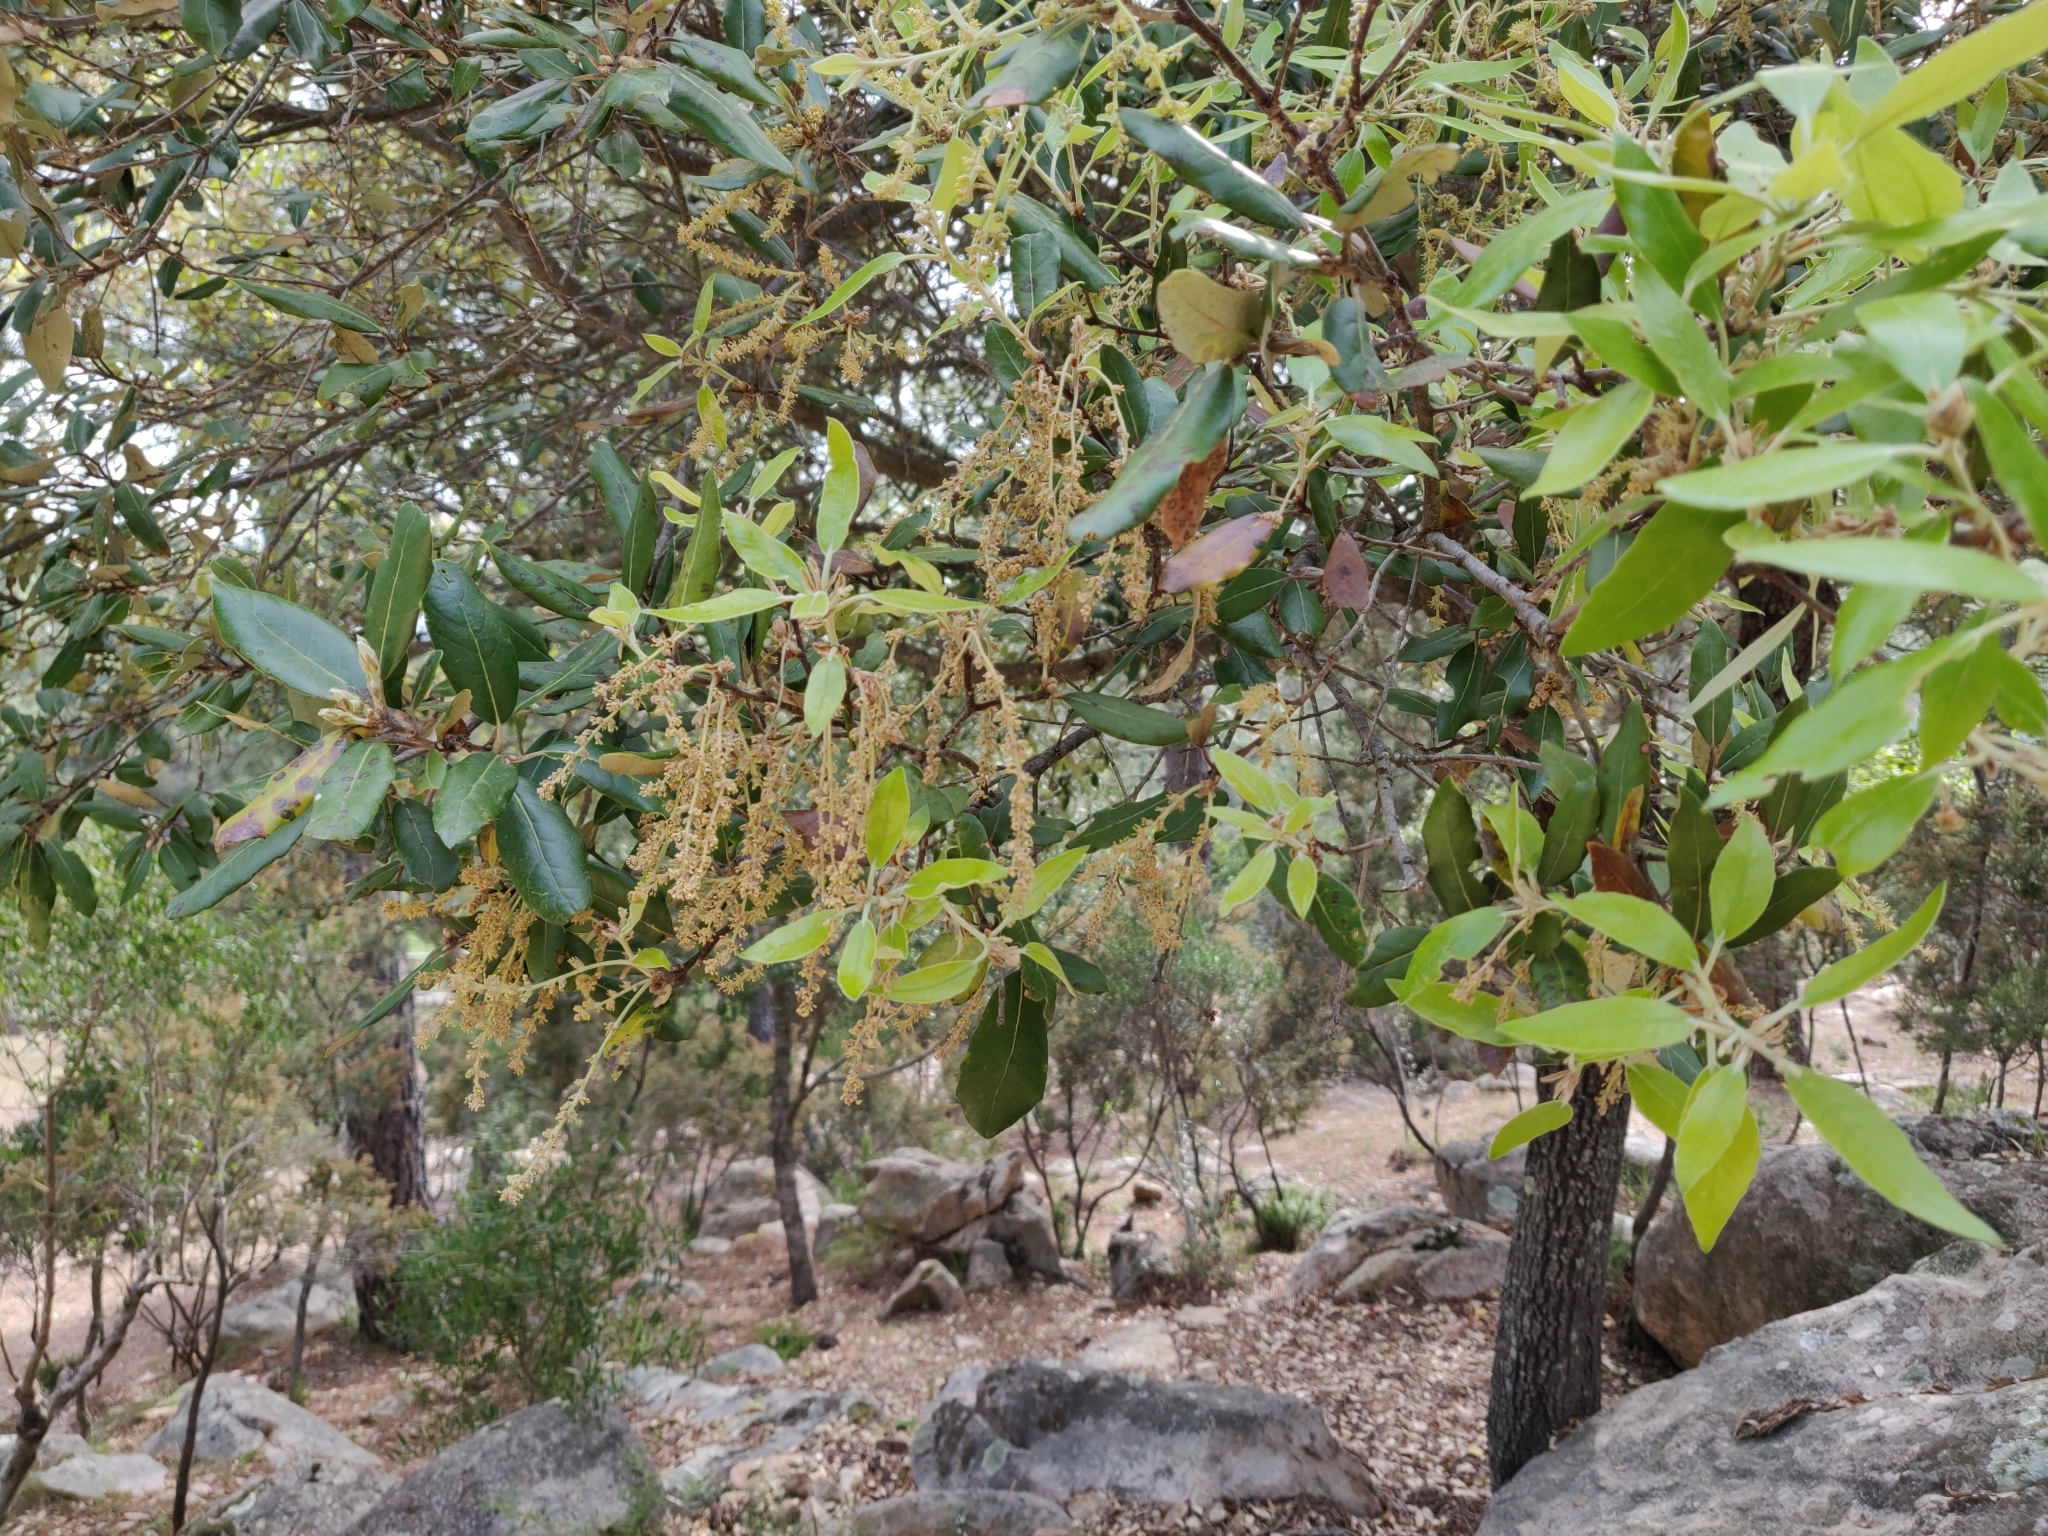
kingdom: Plantae
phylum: Tracheophyta
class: Magnoliopsida
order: Fagales
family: Fagaceae
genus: Quercus
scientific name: Quercus ilex
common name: Evergreen oak
